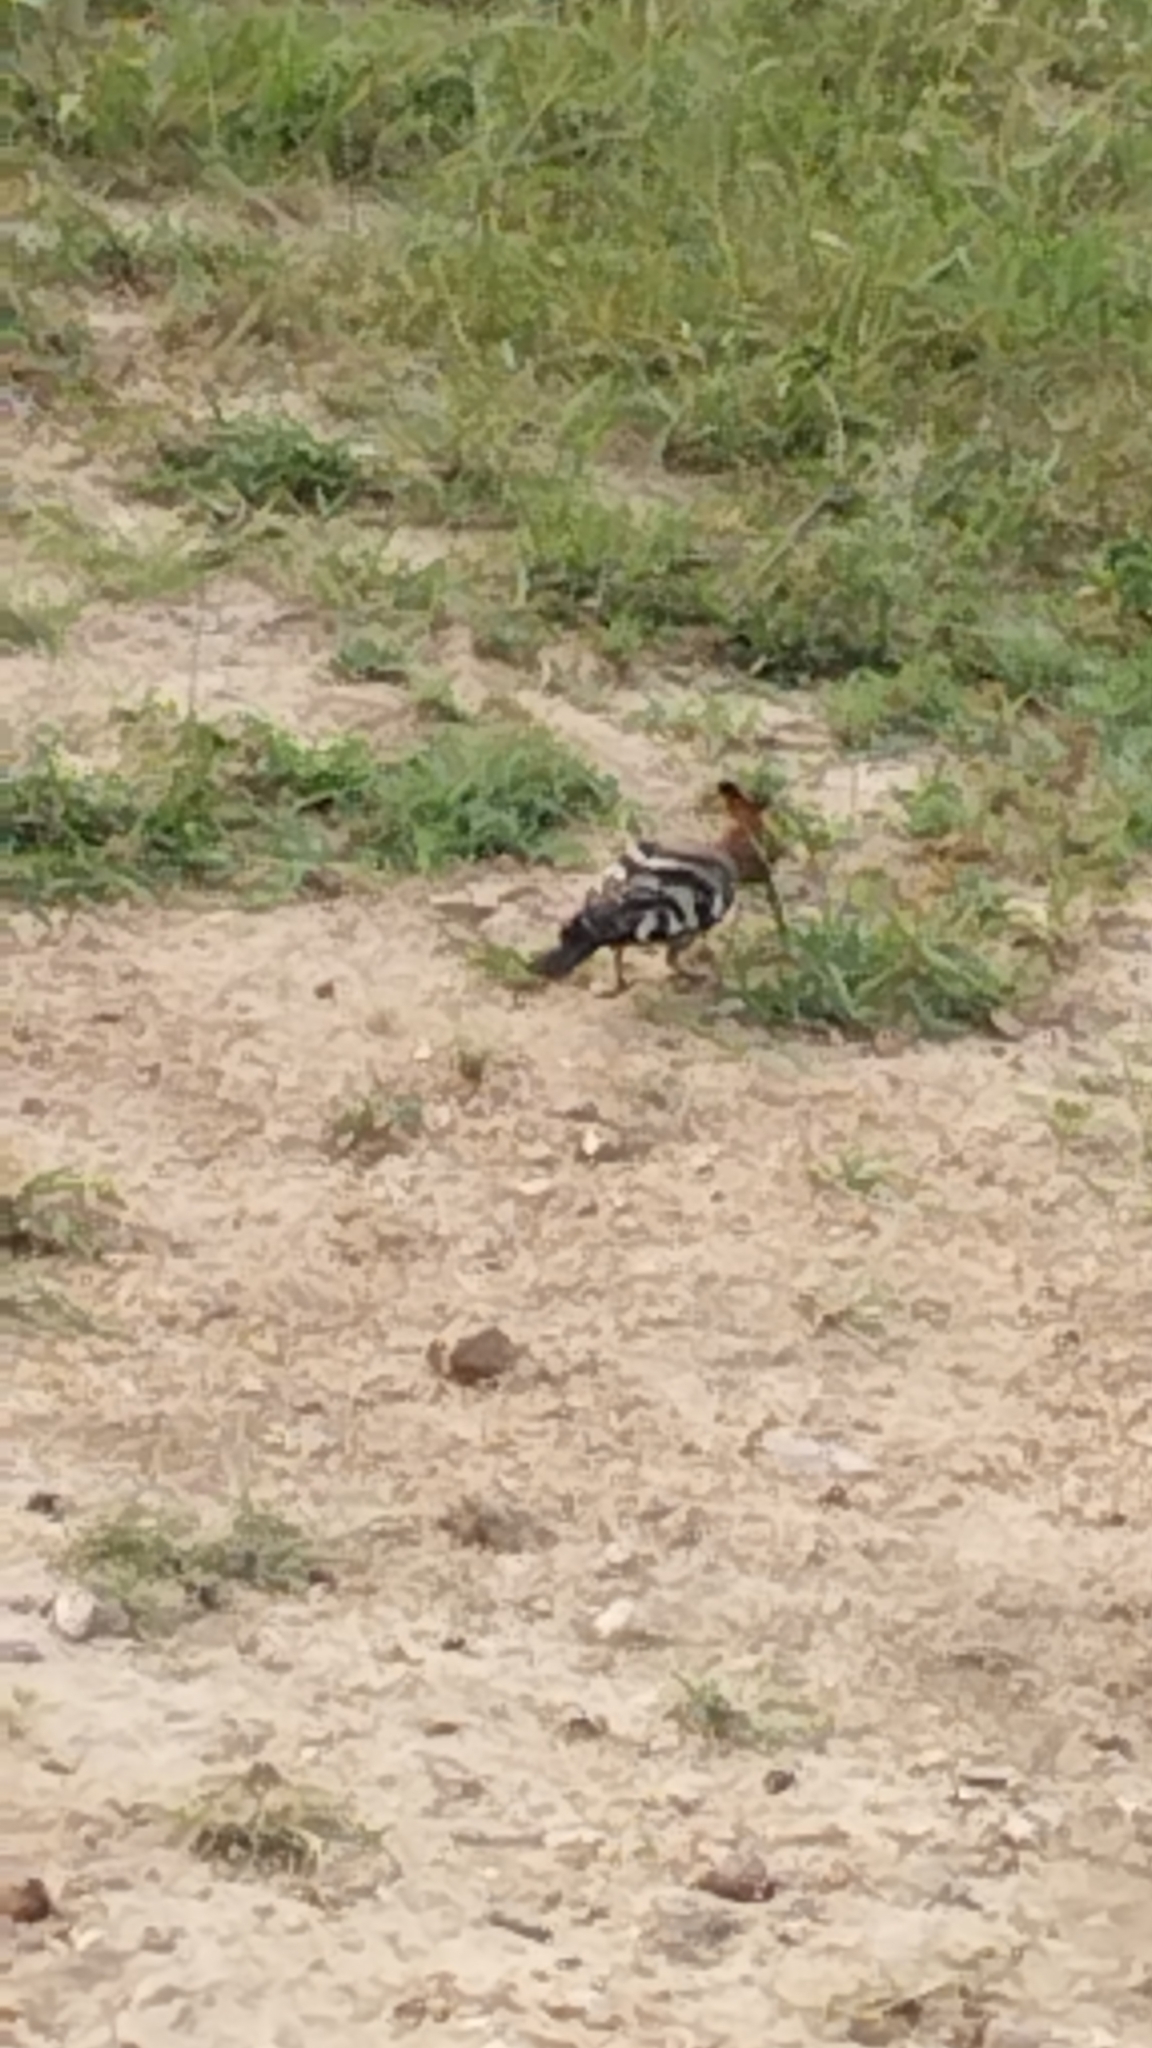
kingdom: Animalia
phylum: Chordata
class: Aves
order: Bucerotiformes
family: Upupidae
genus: Upupa
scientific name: Upupa africana
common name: African hoopoe
